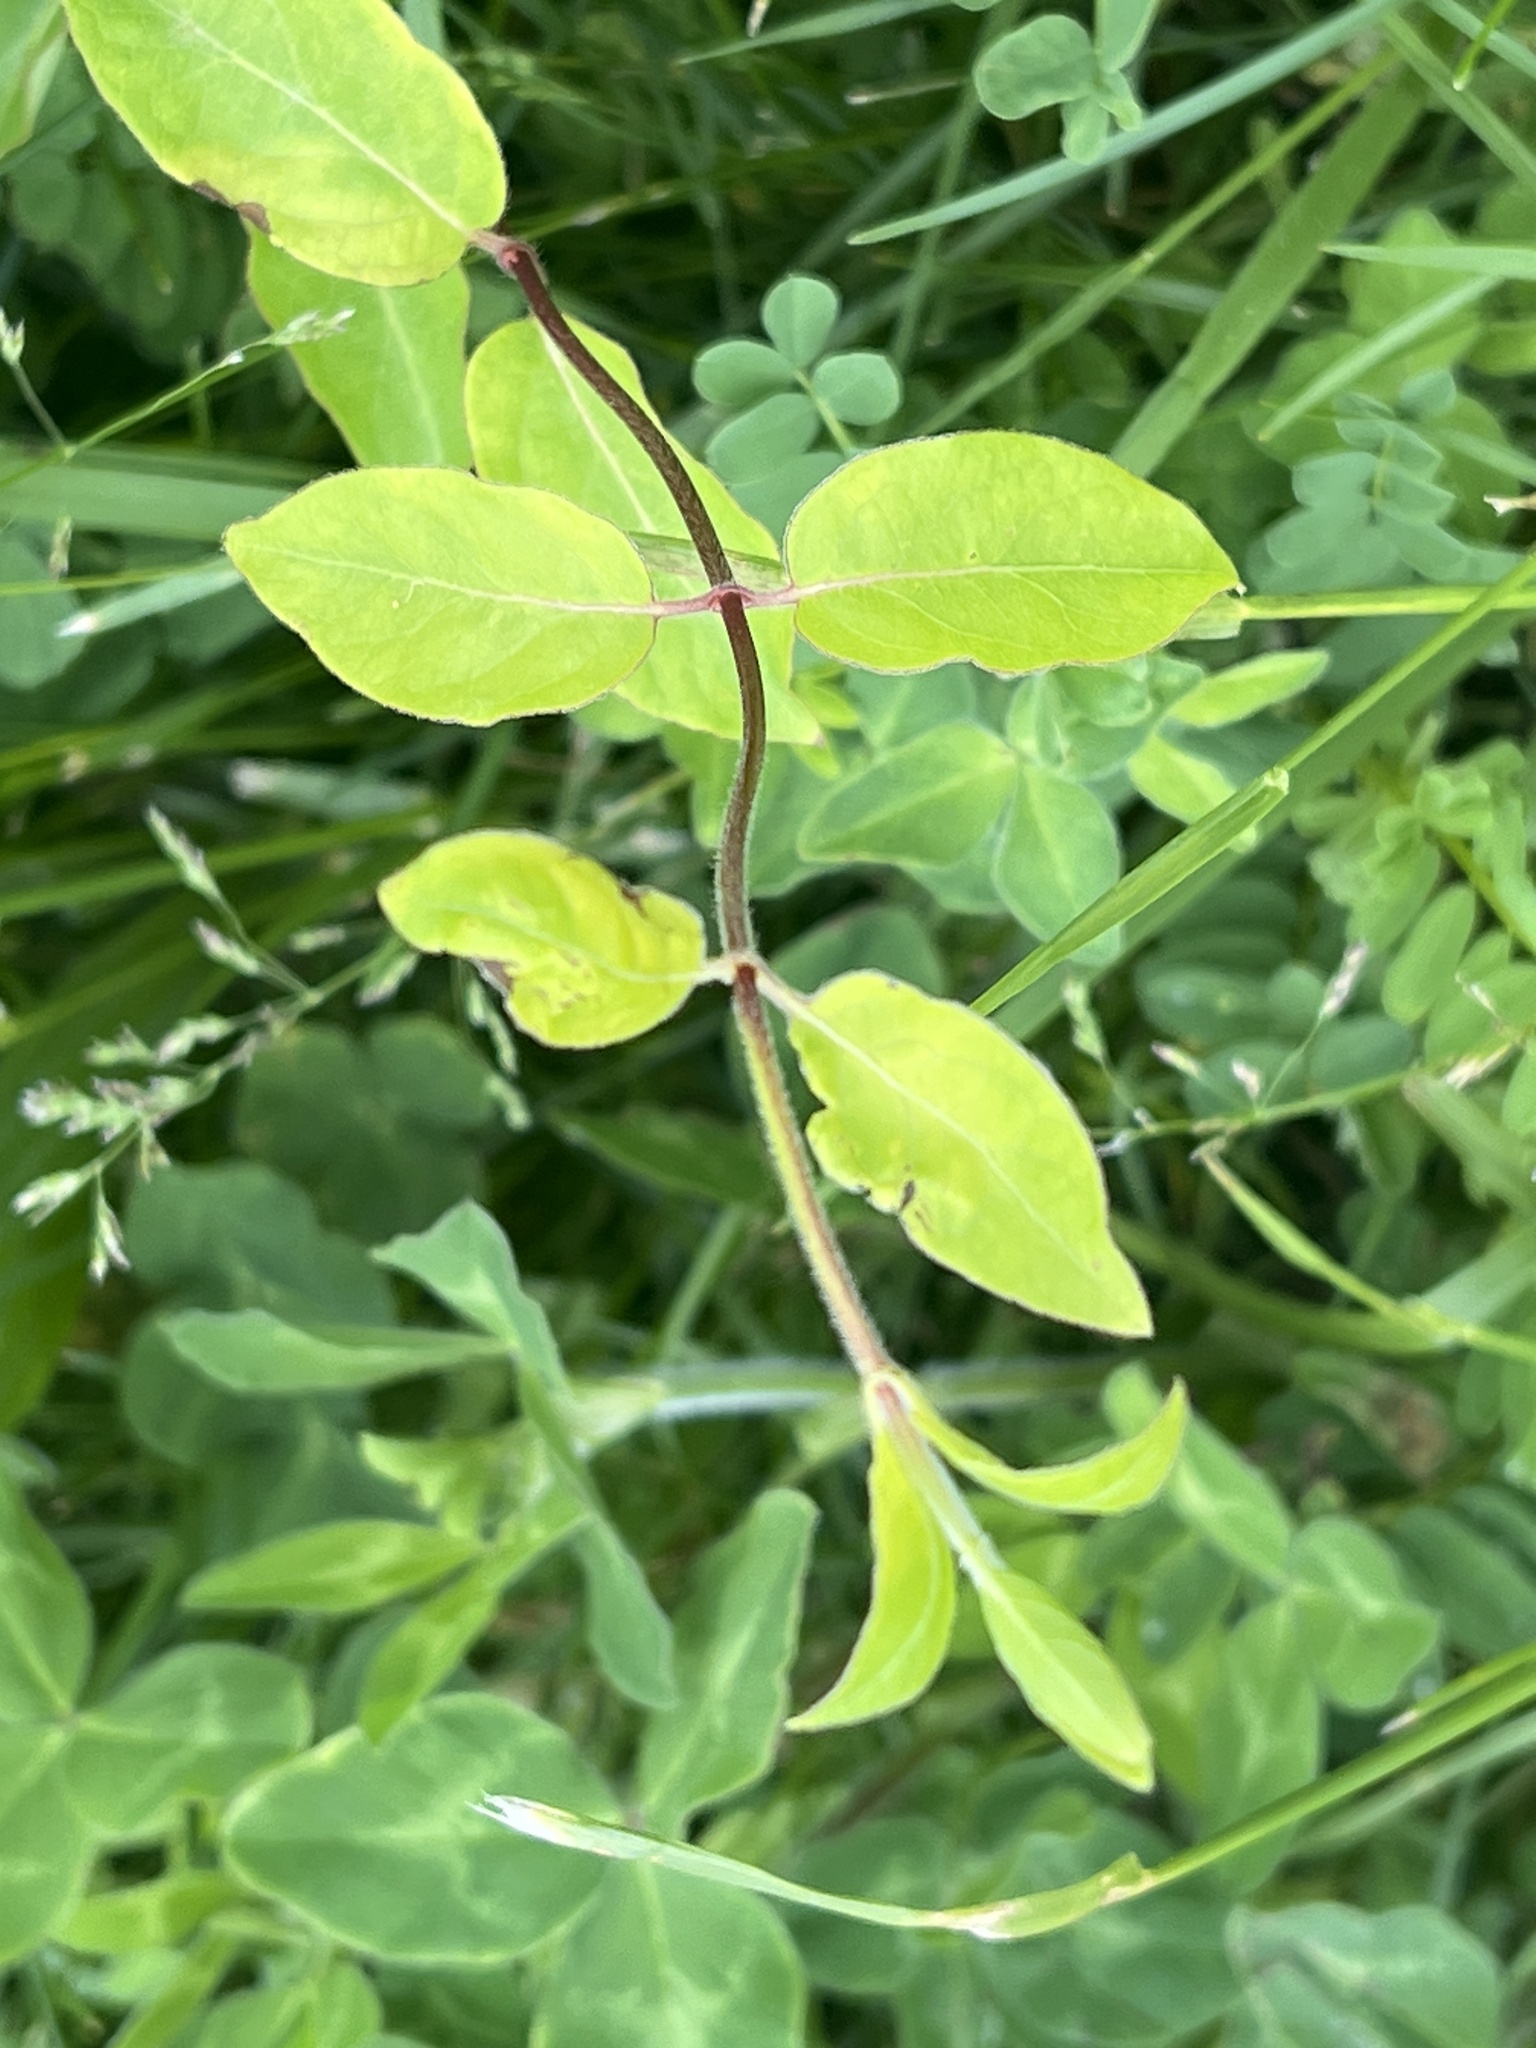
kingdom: Plantae
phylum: Tracheophyta
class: Magnoliopsida
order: Dipsacales
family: Caprifoliaceae
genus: Lonicera
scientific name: Lonicera japonica
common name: Japanese honeysuckle
